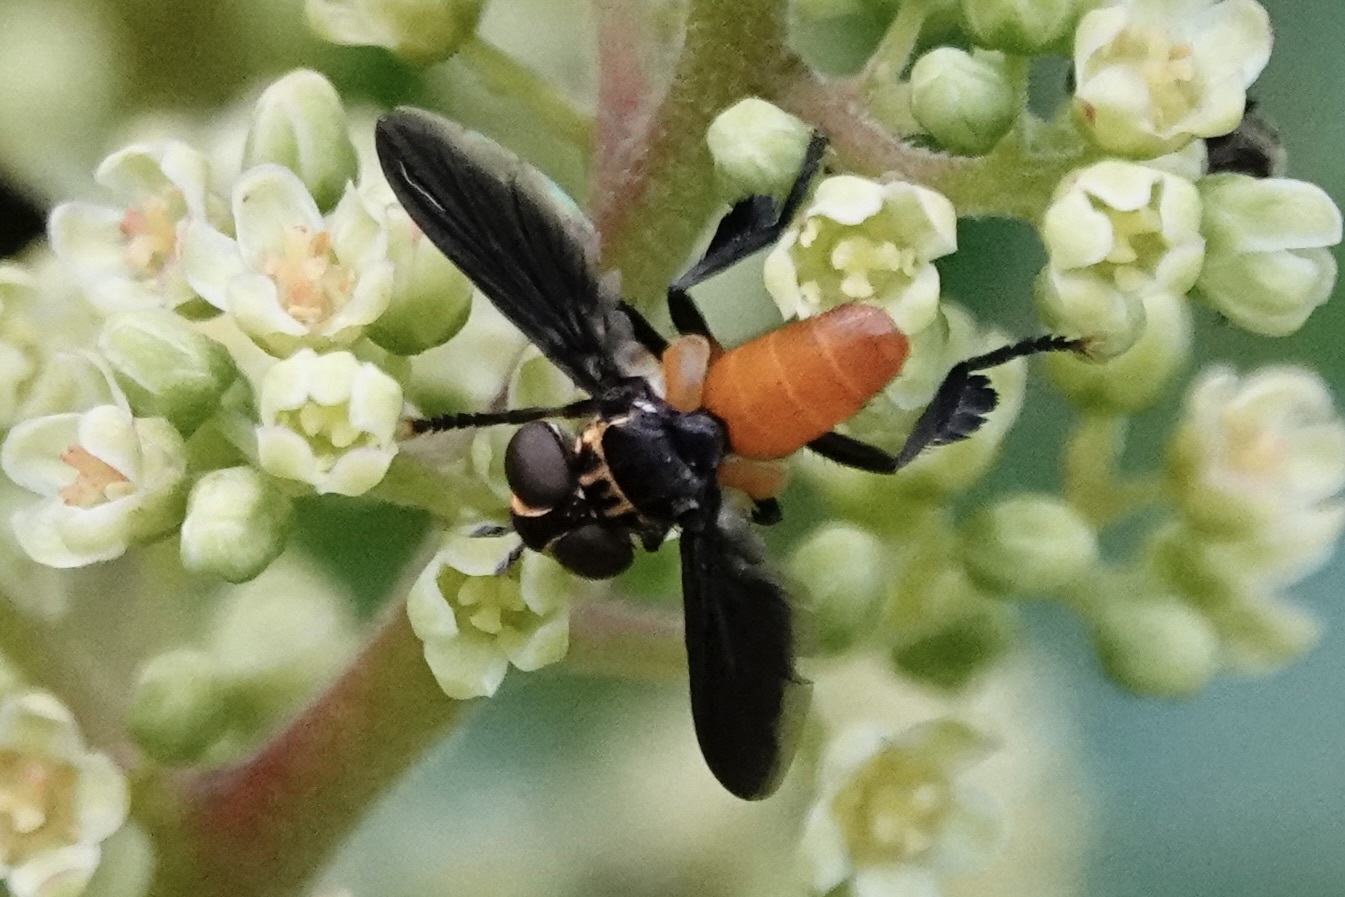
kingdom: Animalia
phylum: Arthropoda
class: Insecta
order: Diptera
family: Tachinidae
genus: Trichopoda
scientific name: Trichopoda pennipes
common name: Tachinid fly
